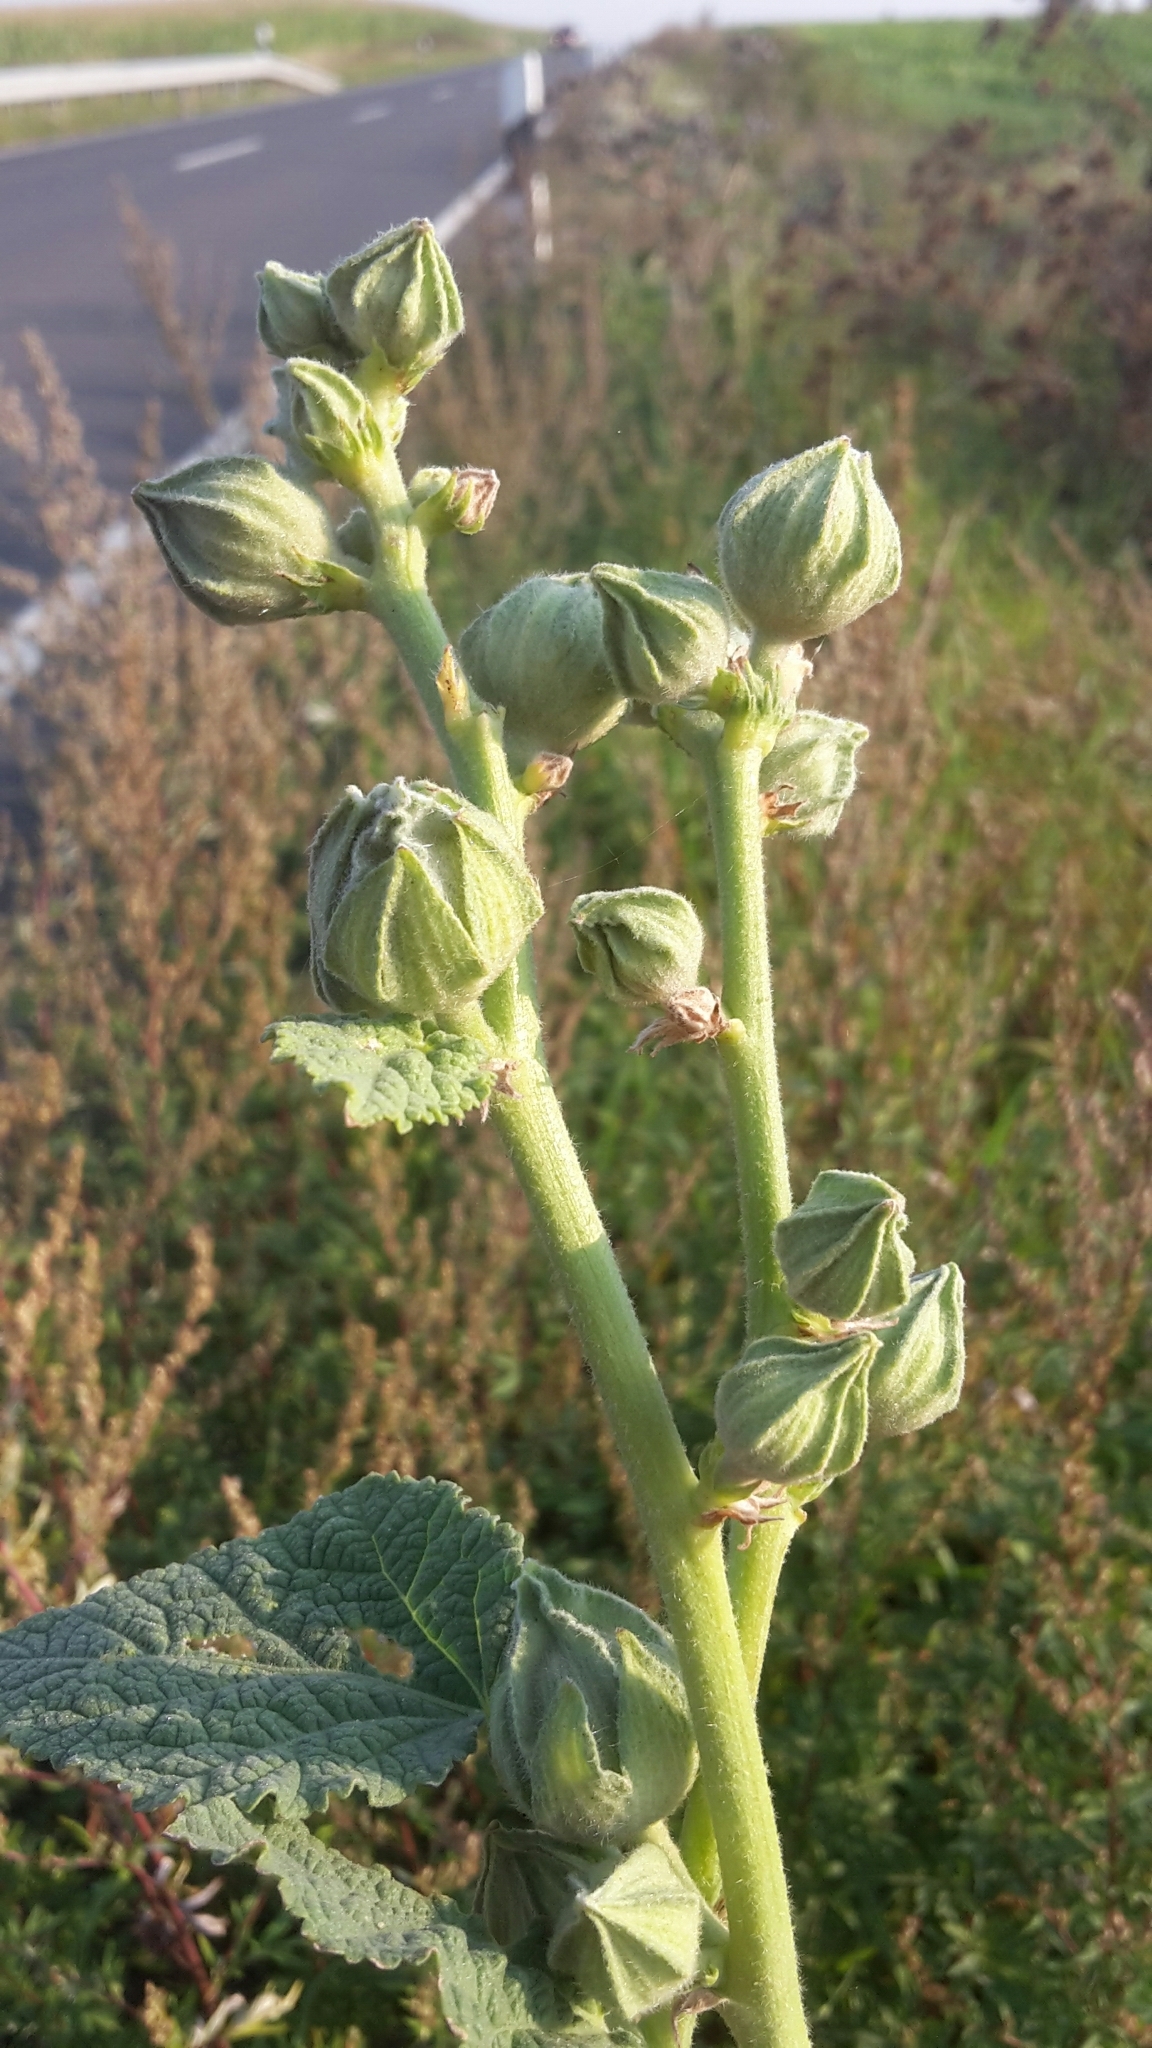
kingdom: Plantae
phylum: Tracheophyta
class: Magnoliopsida
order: Malvales
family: Malvaceae
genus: Alcea
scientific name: Alcea rosea
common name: Hollyhock
